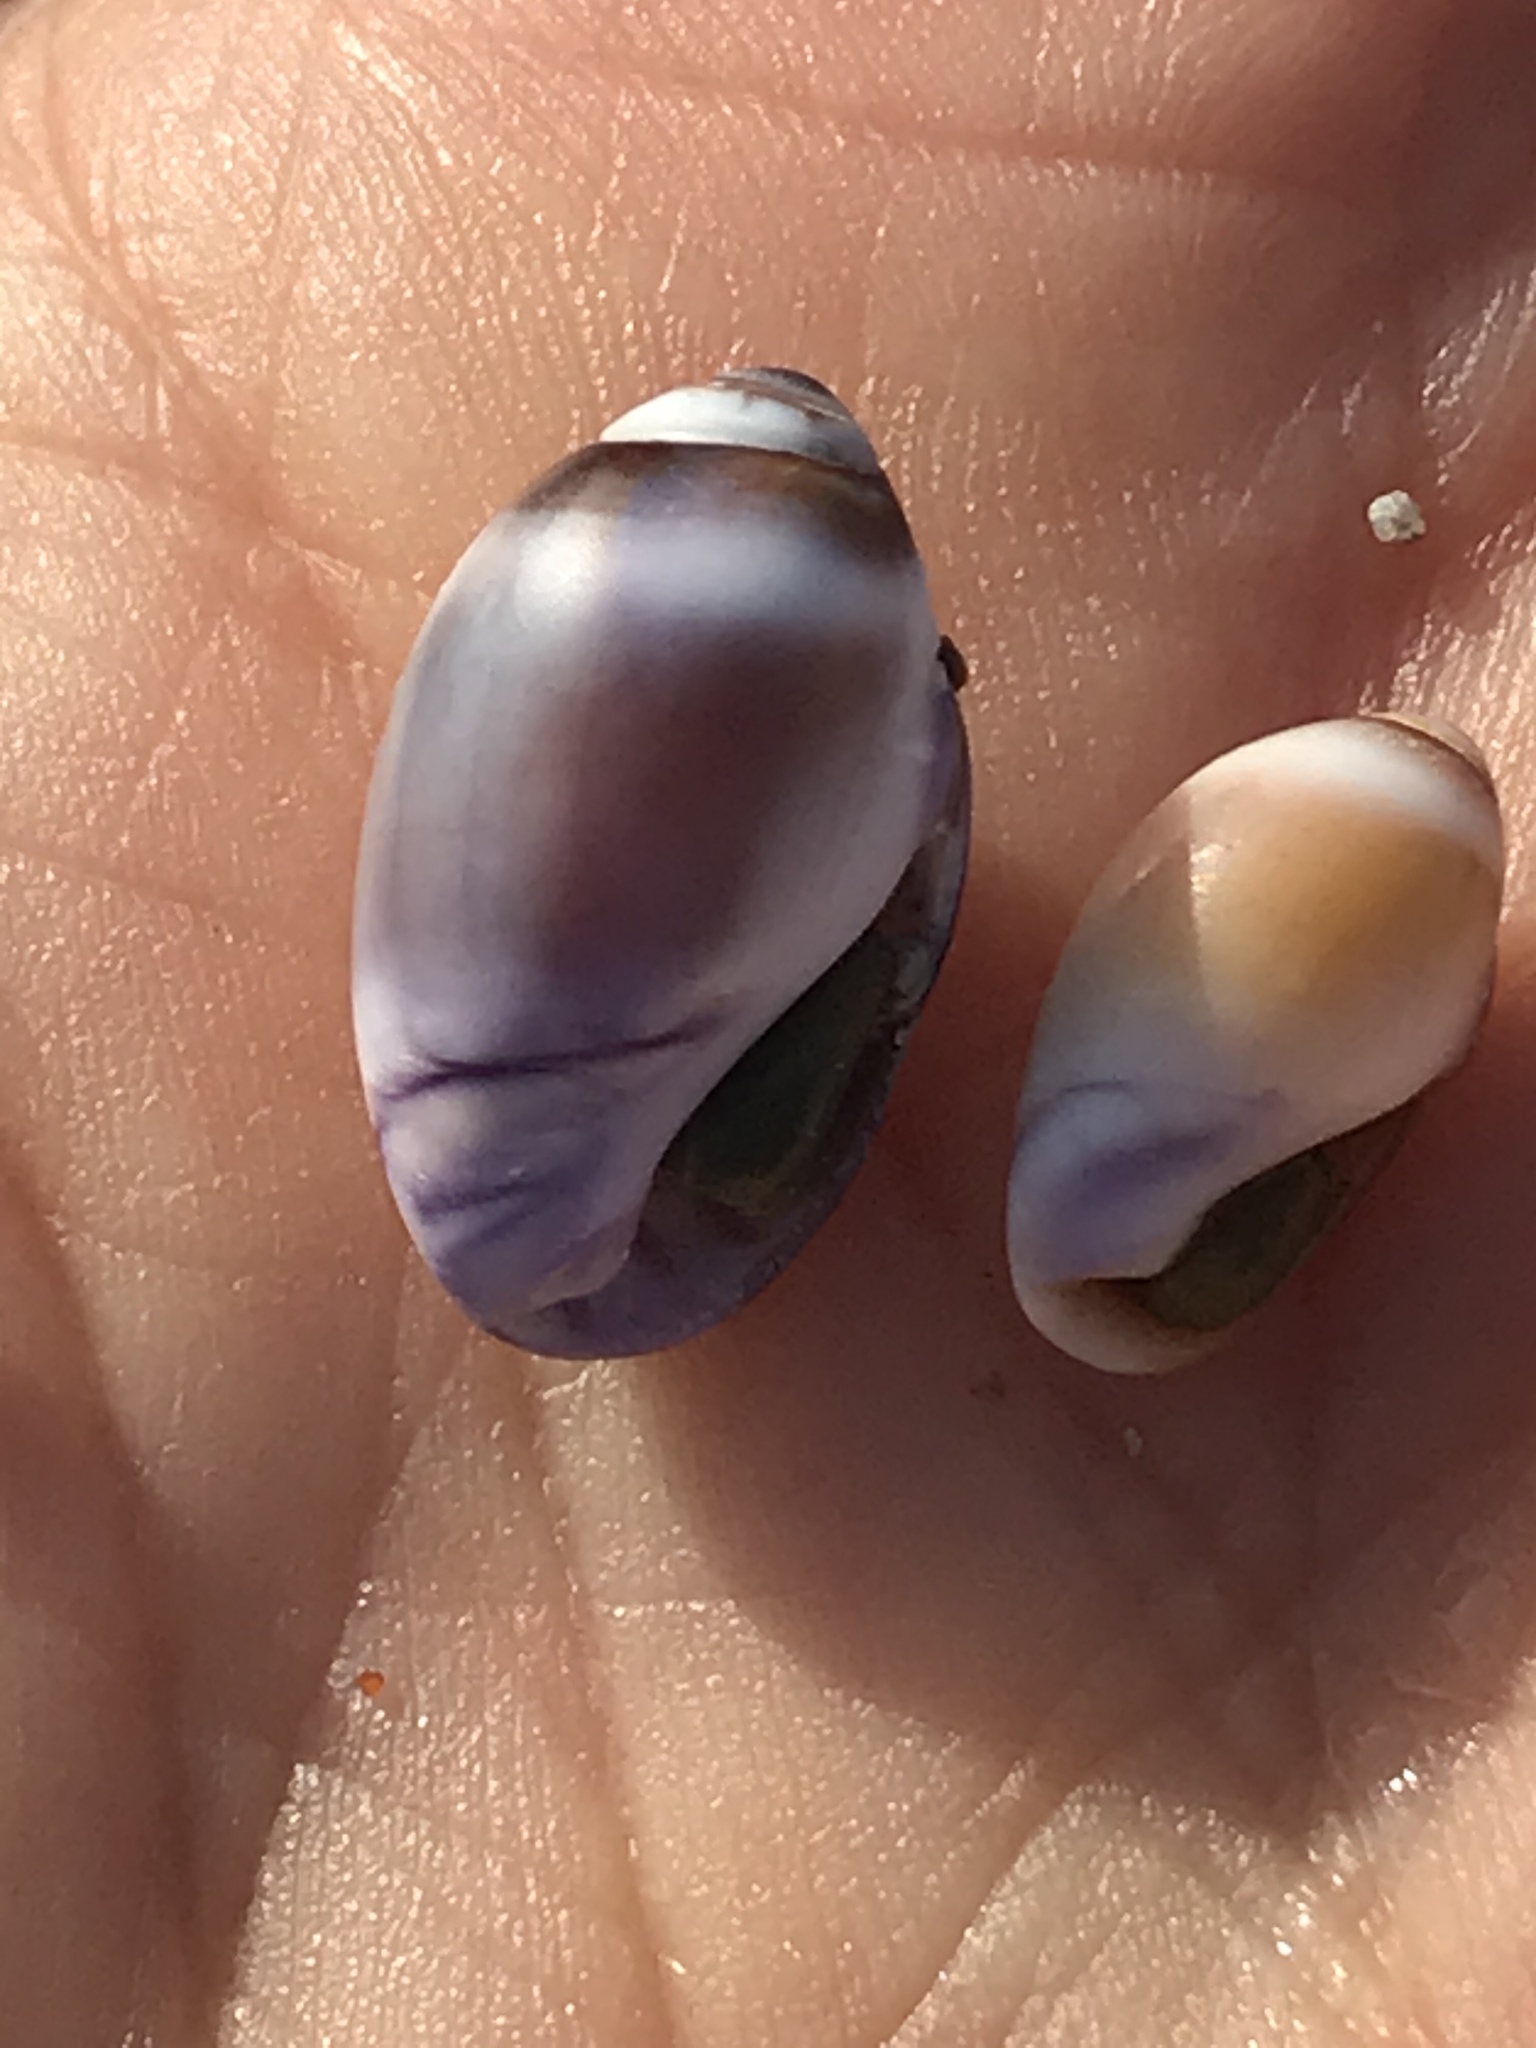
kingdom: Animalia
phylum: Mollusca
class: Gastropoda
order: Neogastropoda
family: Olividae
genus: Callianax
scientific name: Callianax biplicata
